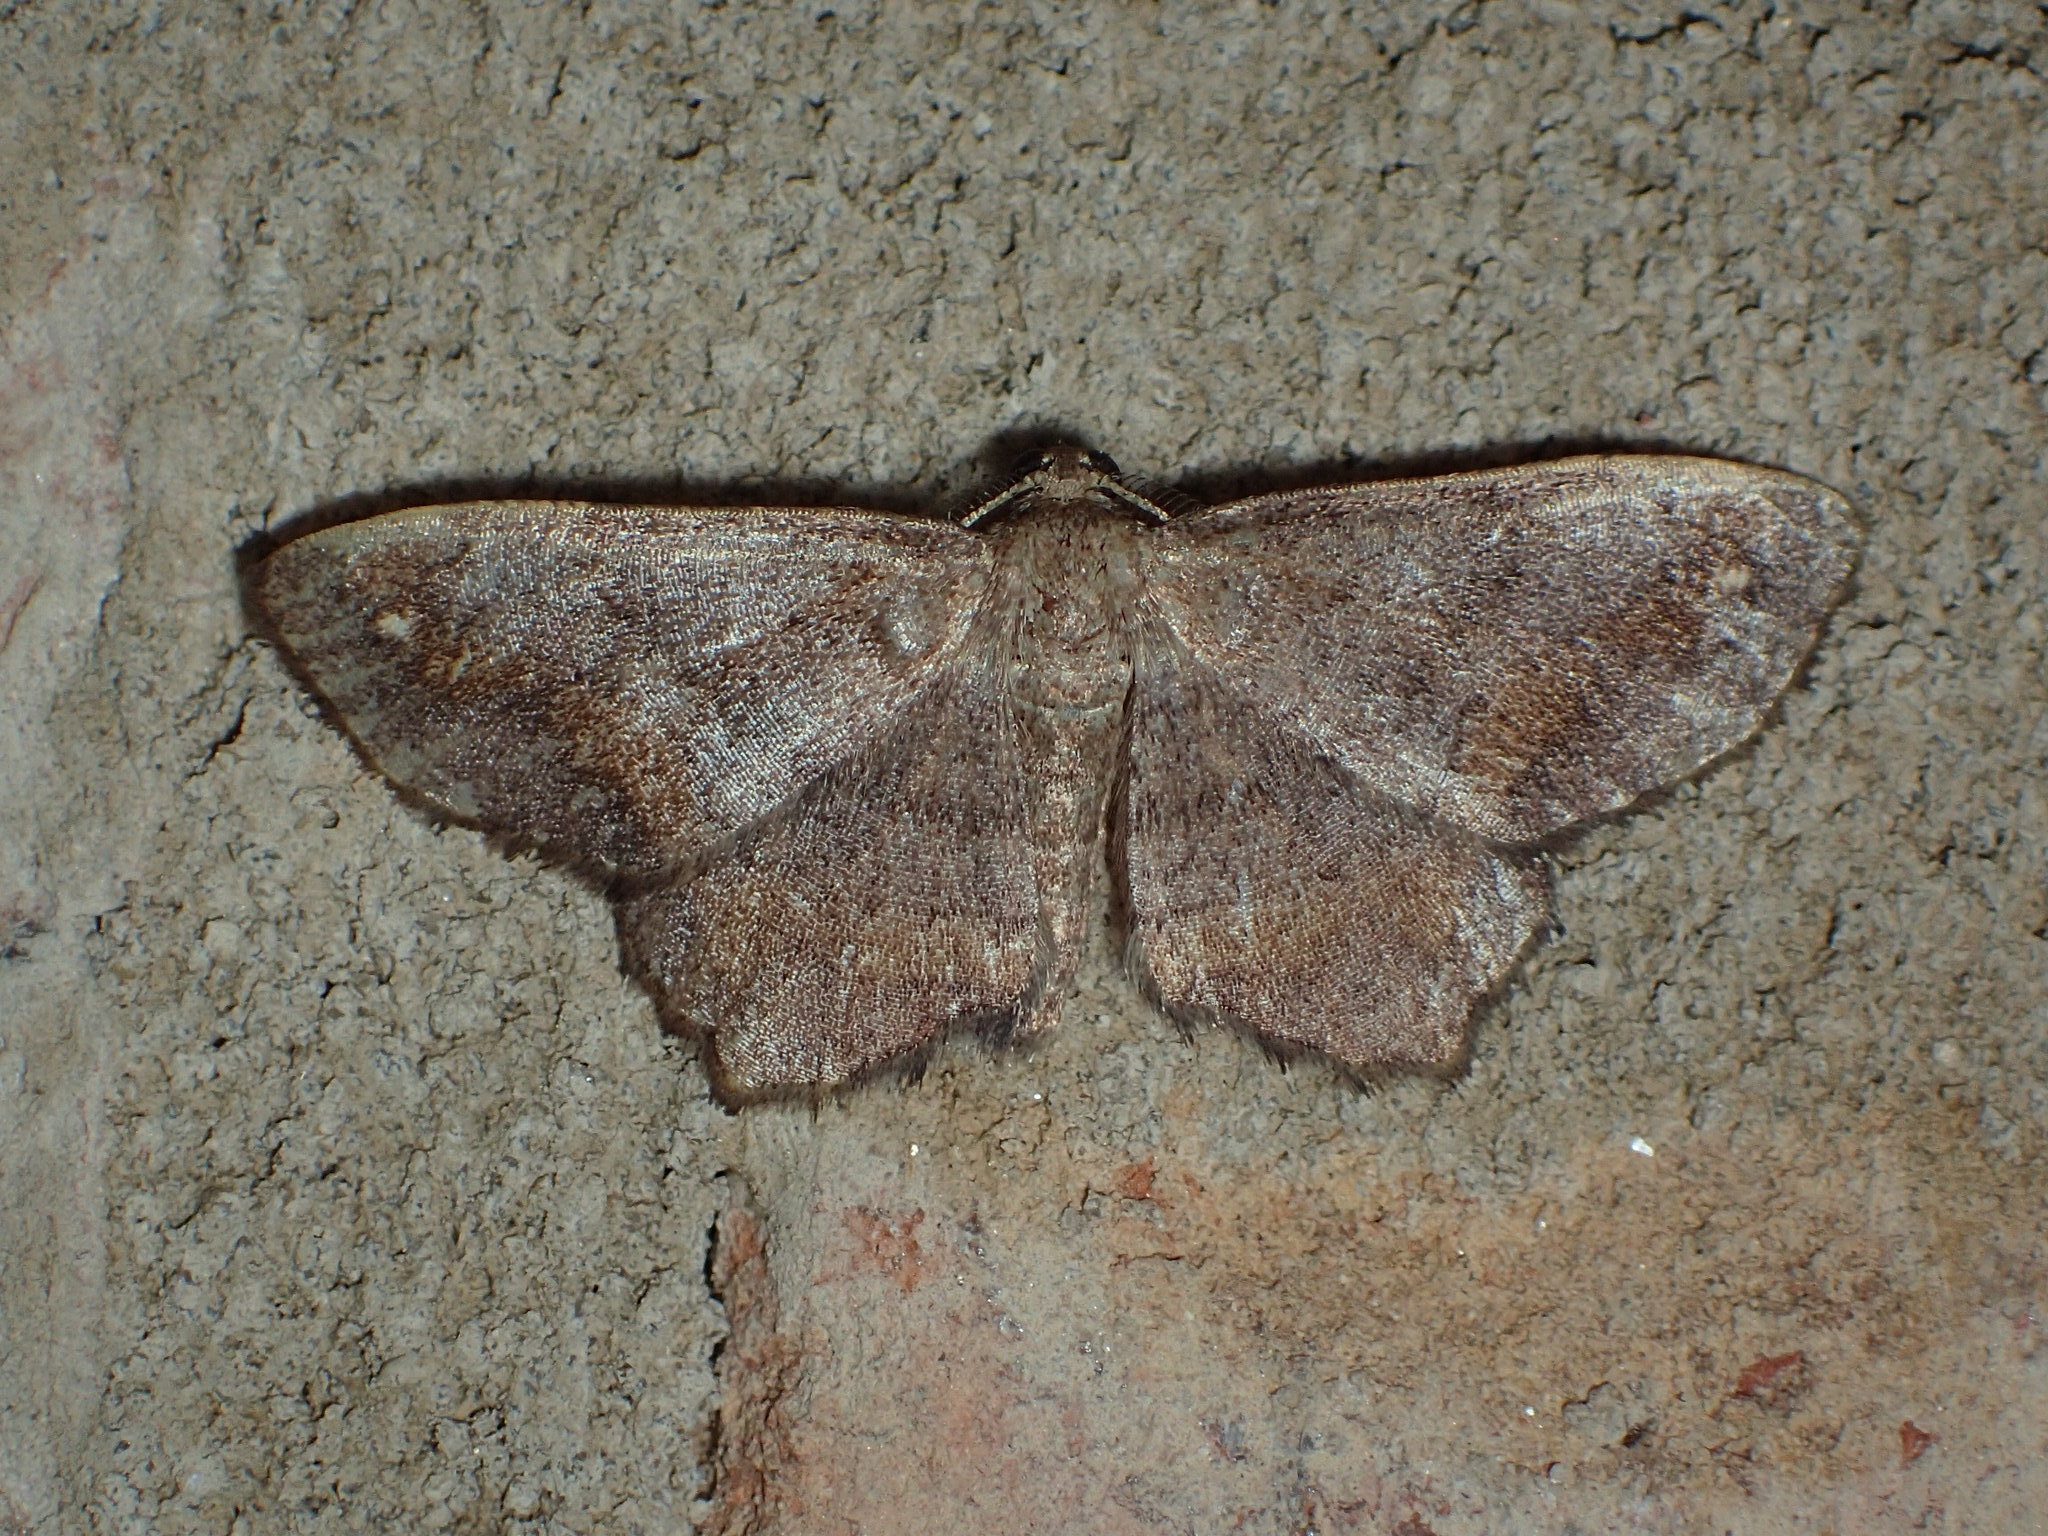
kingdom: Animalia
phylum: Arthropoda
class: Insecta
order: Lepidoptera
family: Geometridae
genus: Hypagyrtis
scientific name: Hypagyrtis unipunctata
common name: One-spotted variant
